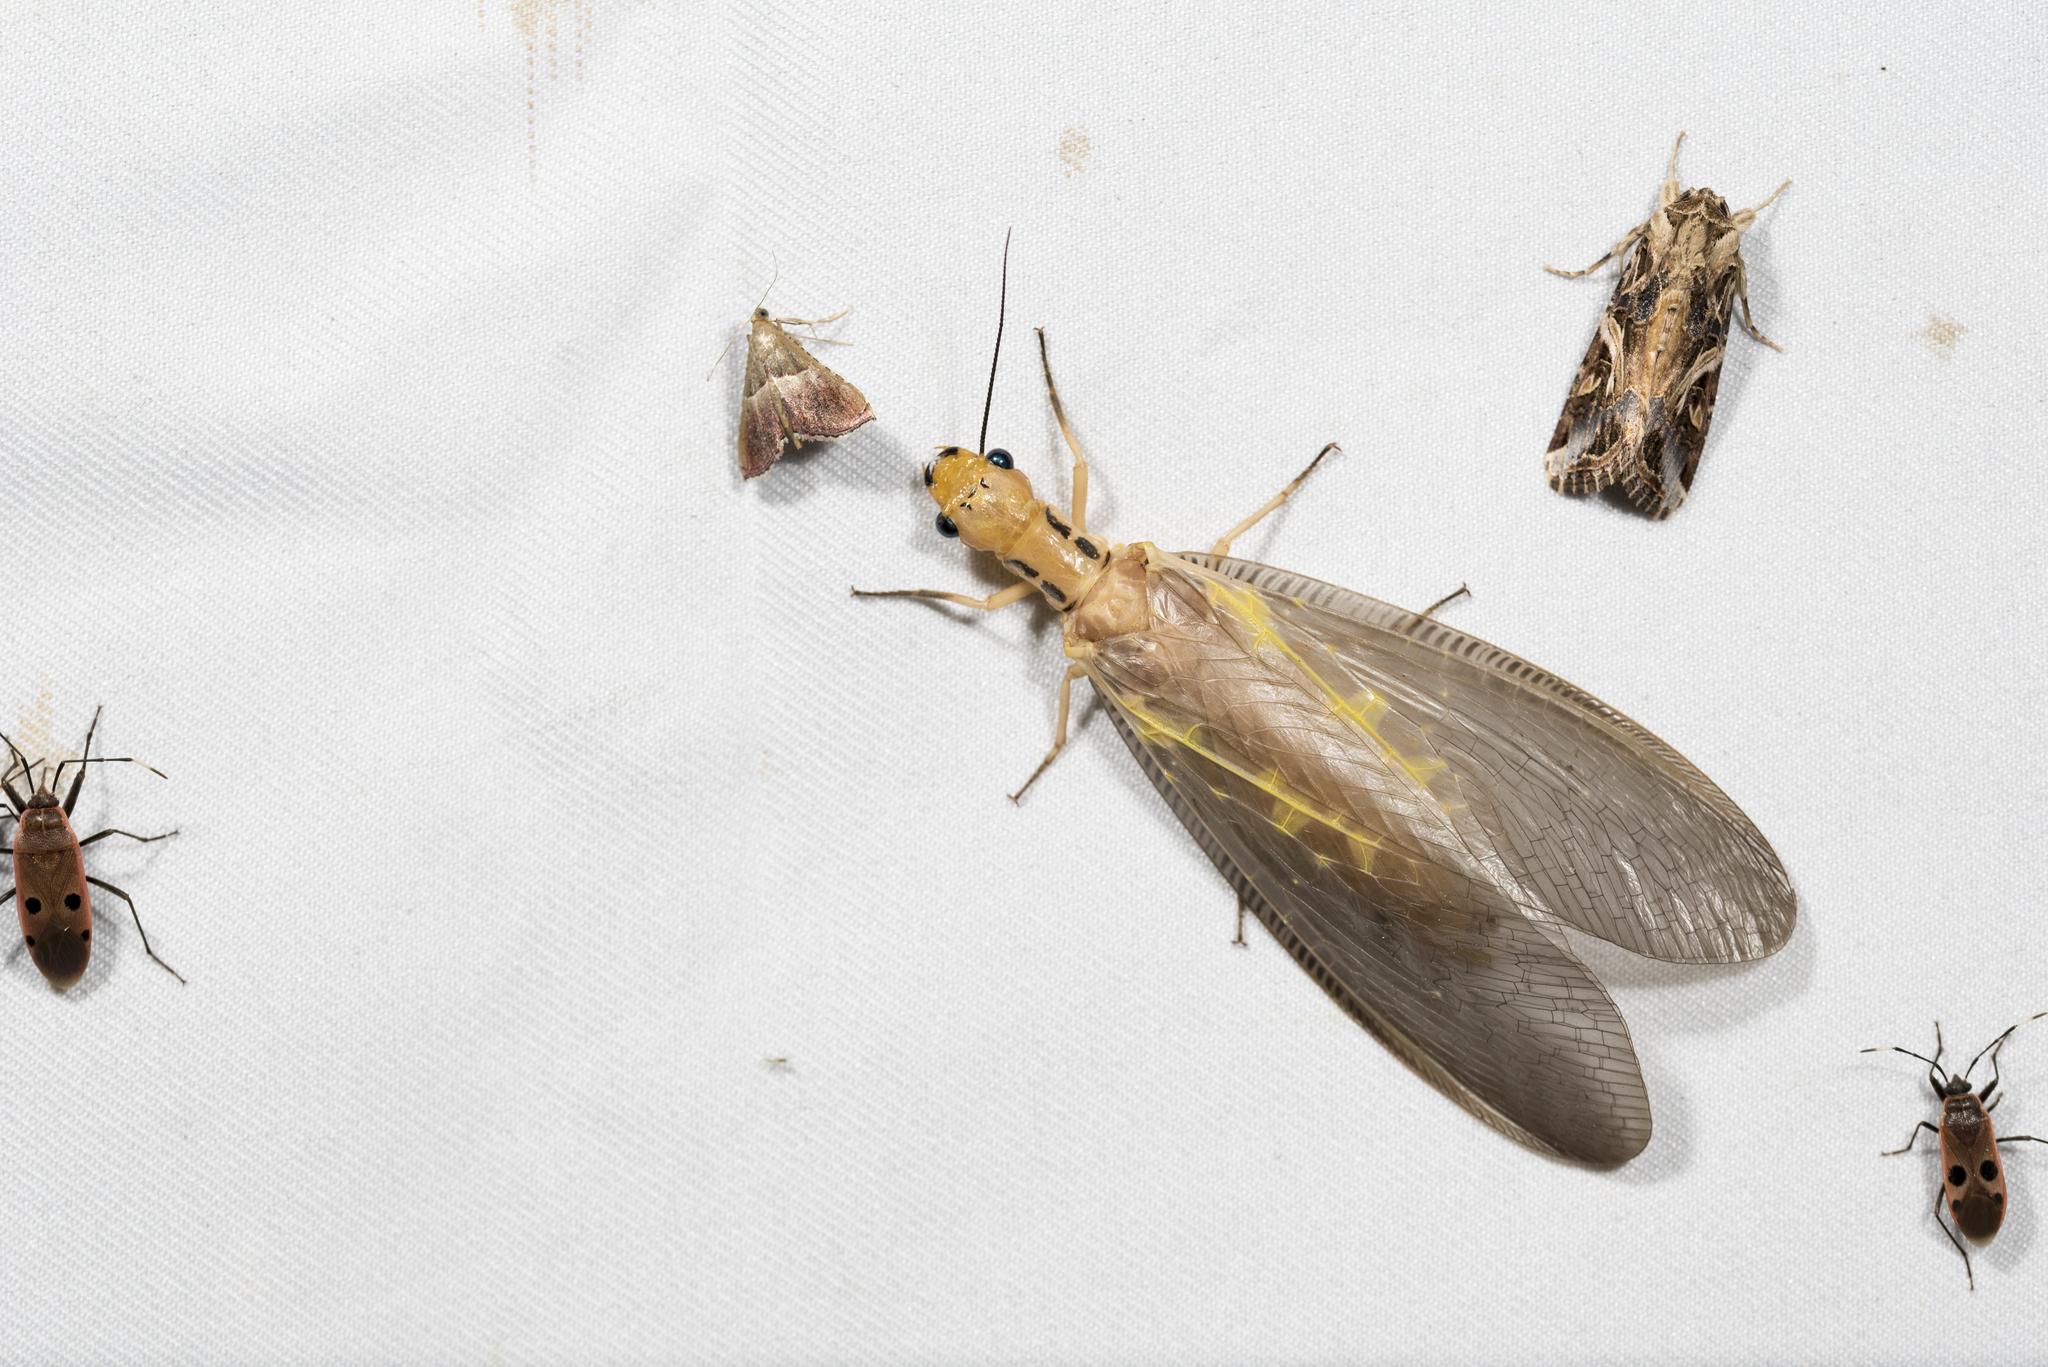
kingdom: Animalia
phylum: Arthropoda
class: Insecta
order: Megaloptera
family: Corydalidae
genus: Protohermes
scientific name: Protohermes costalis
